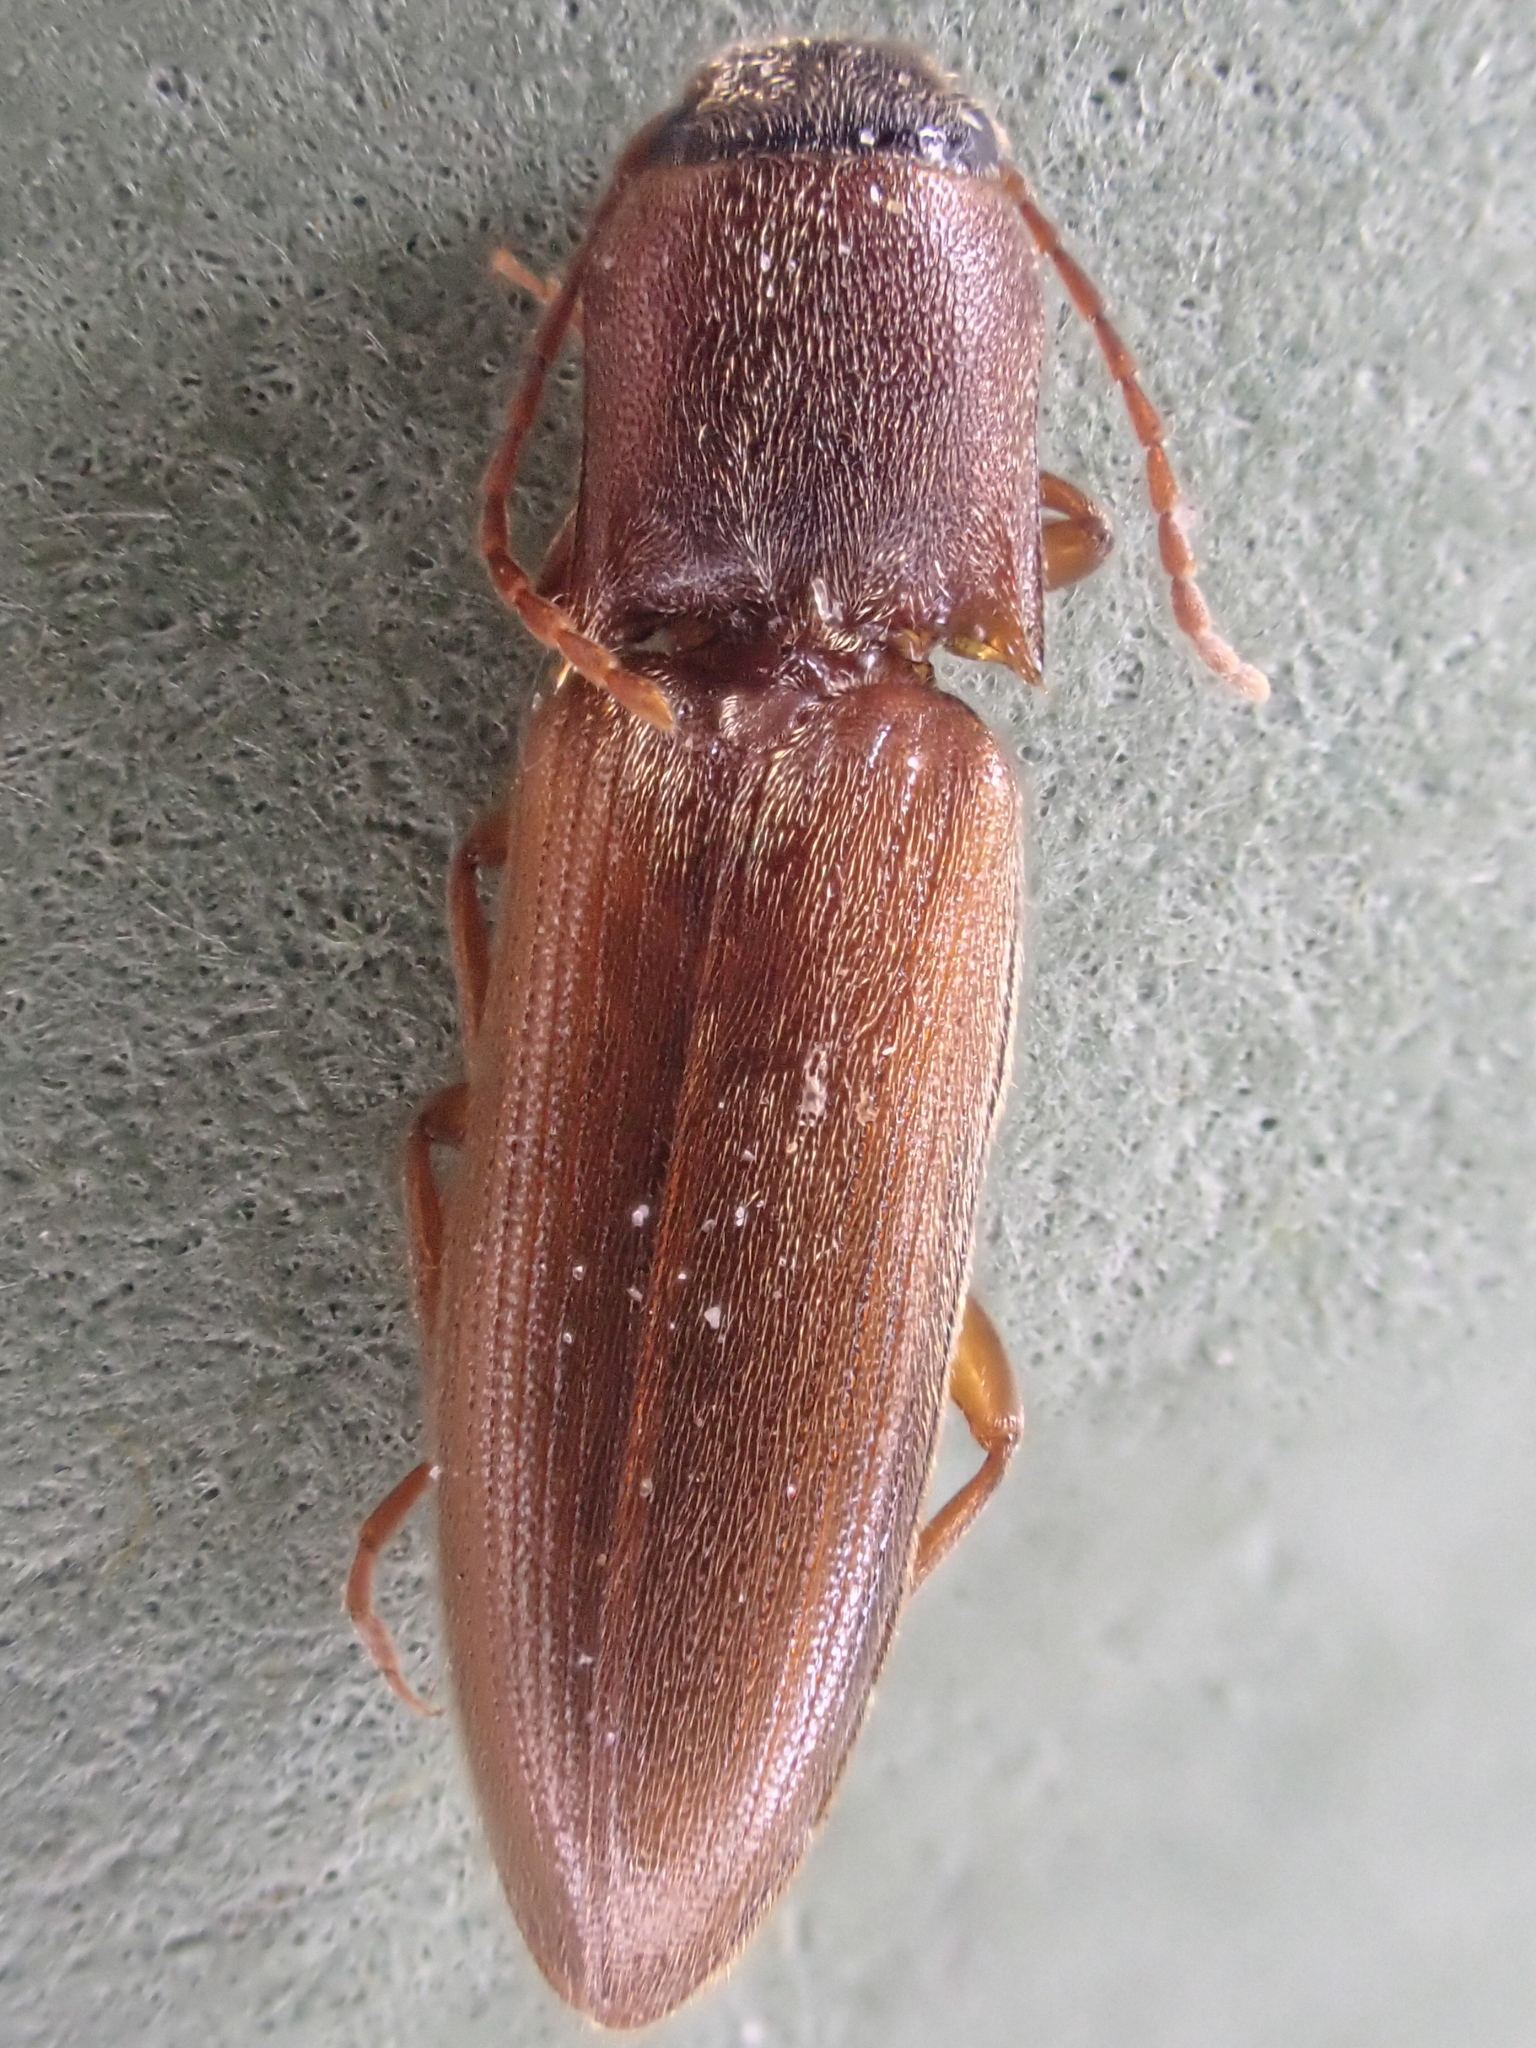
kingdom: Animalia
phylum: Arthropoda
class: Insecta
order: Coleoptera
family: Elateridae
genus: Dalopius
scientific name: Dalopius gartrelli
